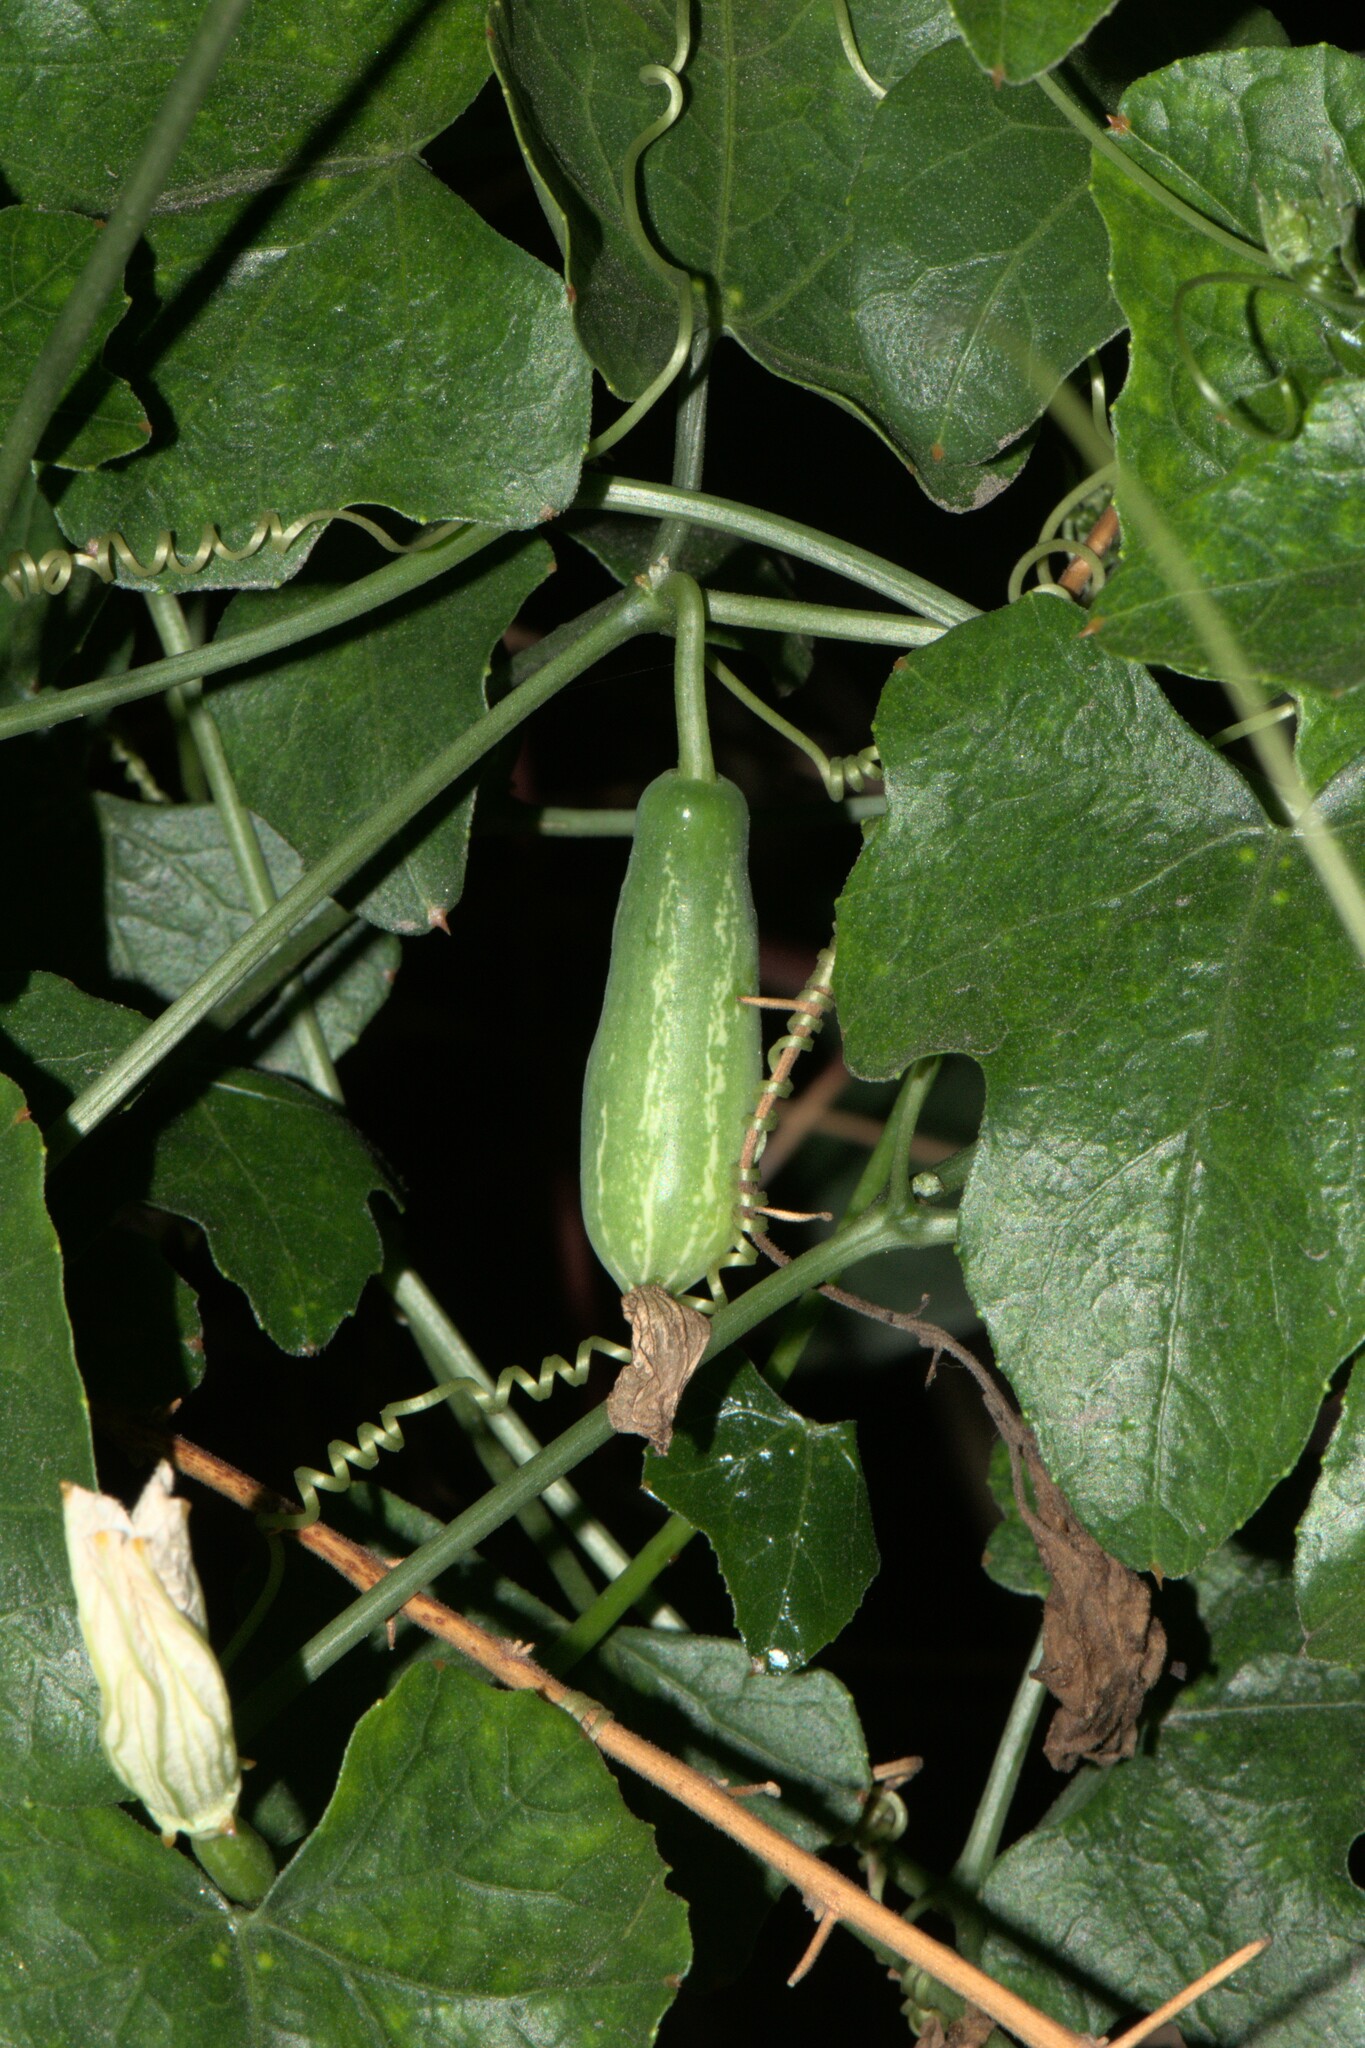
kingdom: Plantae
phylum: Tracheophyta
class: Magnoliopsida
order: Cucurbitales
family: Cucurbitaceae
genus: Coccinia
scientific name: Coccinia grandis
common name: Ivy gourd
